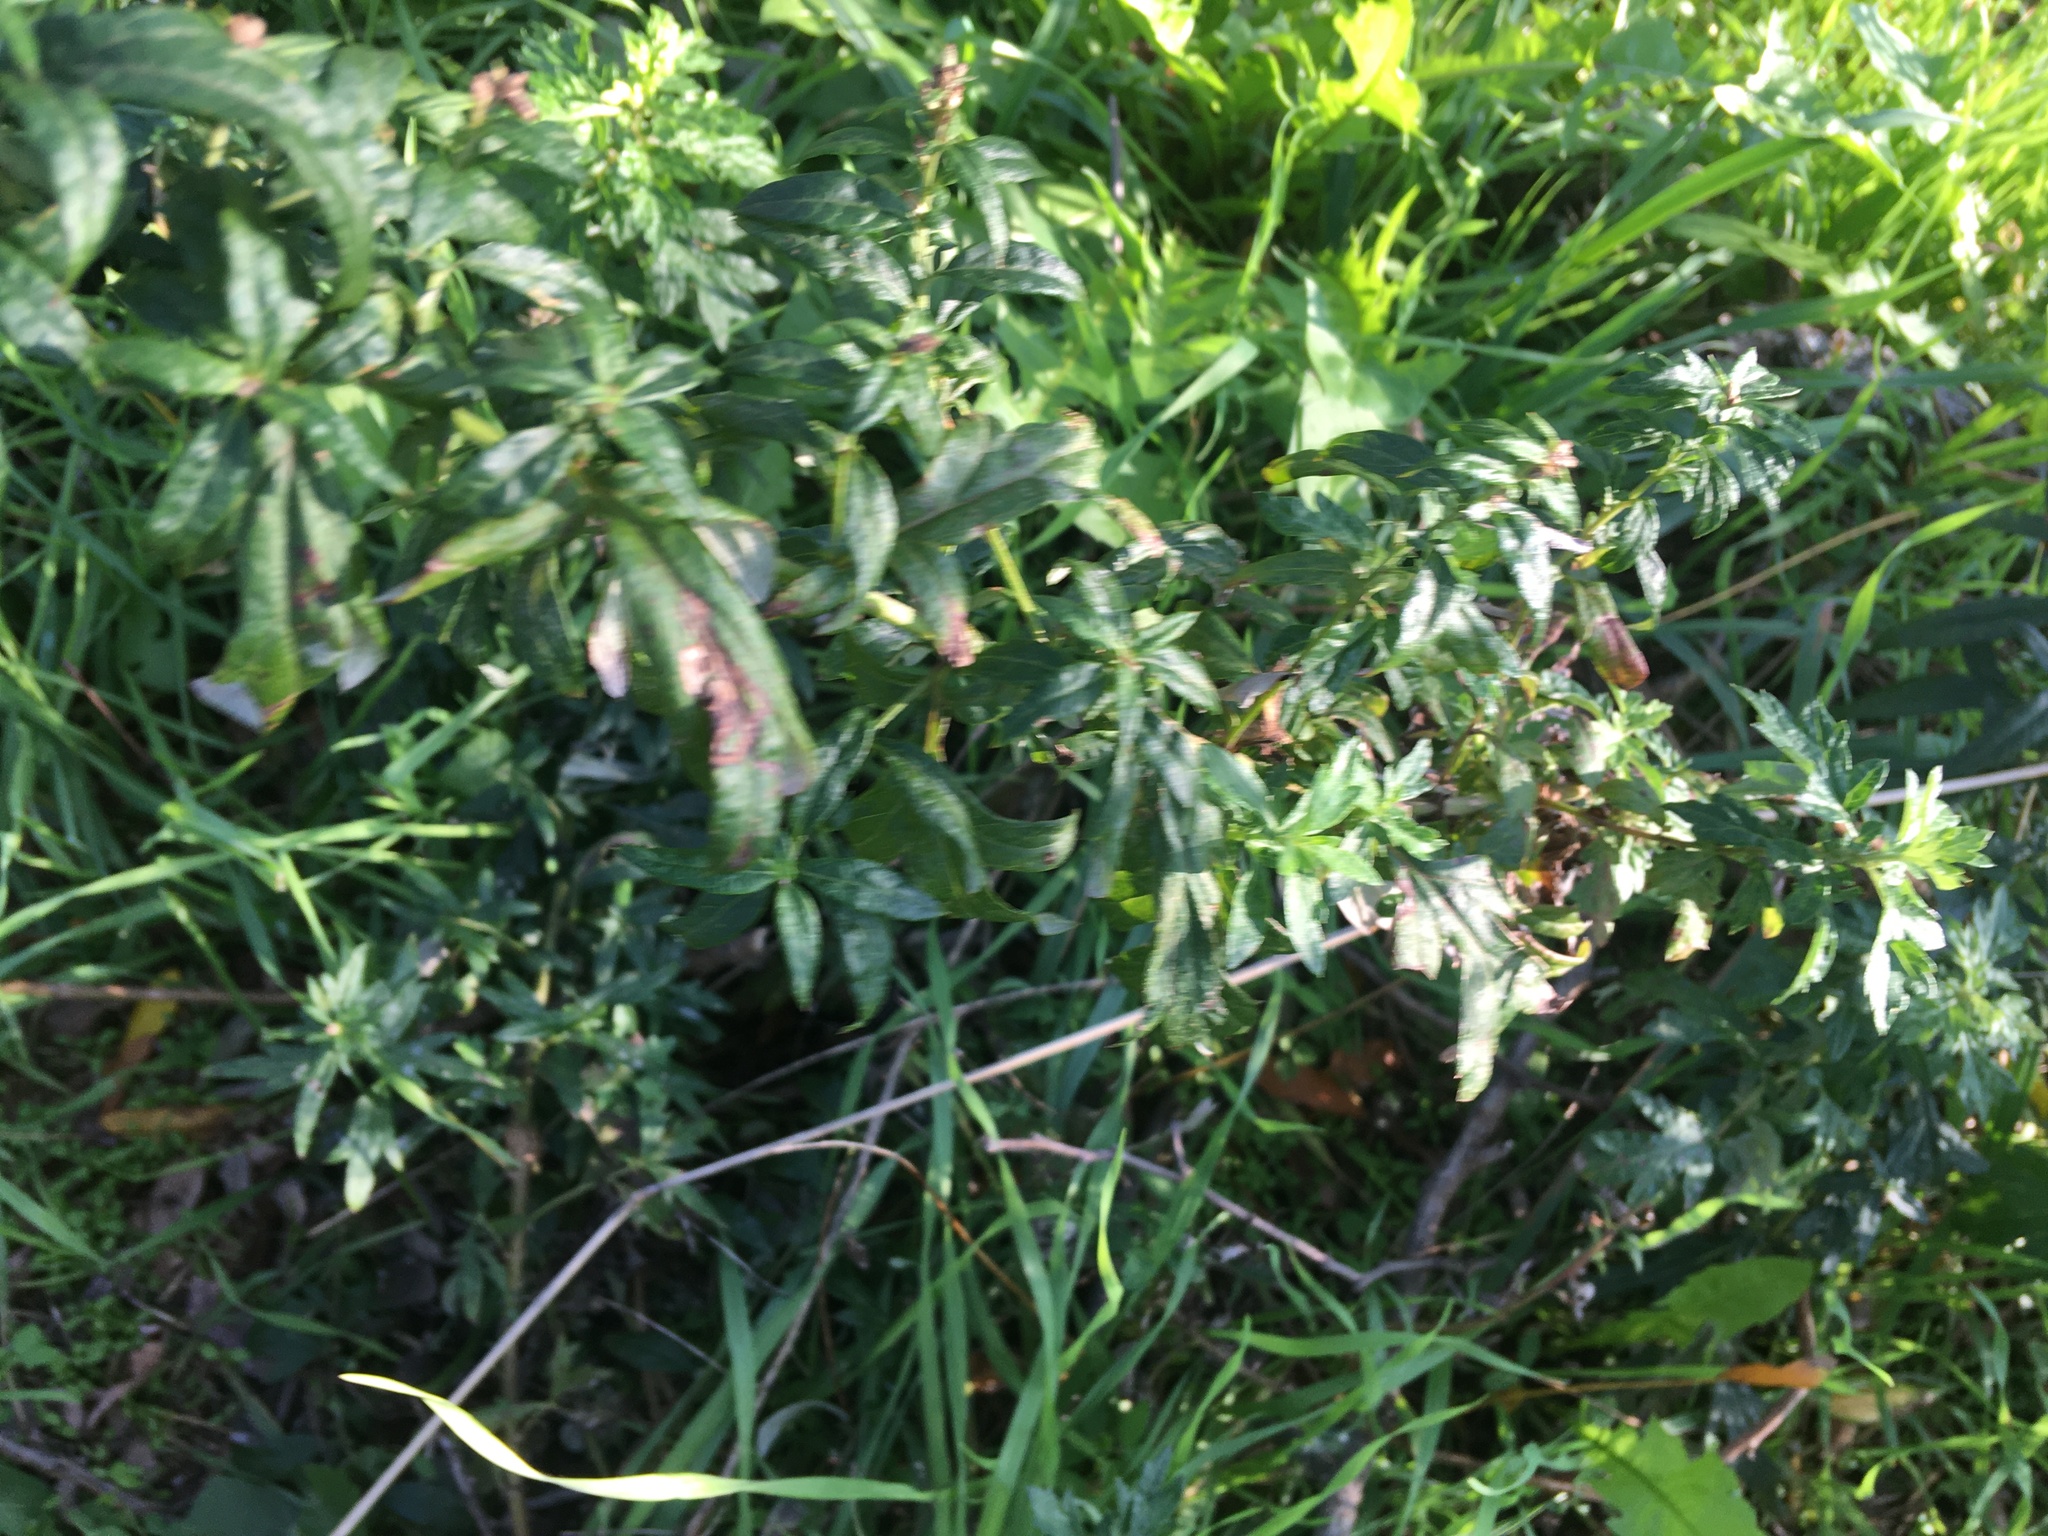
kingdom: Plantae
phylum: Tracheophyta
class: Magnoliopsida
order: Asterales
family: Asteraceae
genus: Artemisia
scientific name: Artemisia vulgaris
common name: Mugwort
